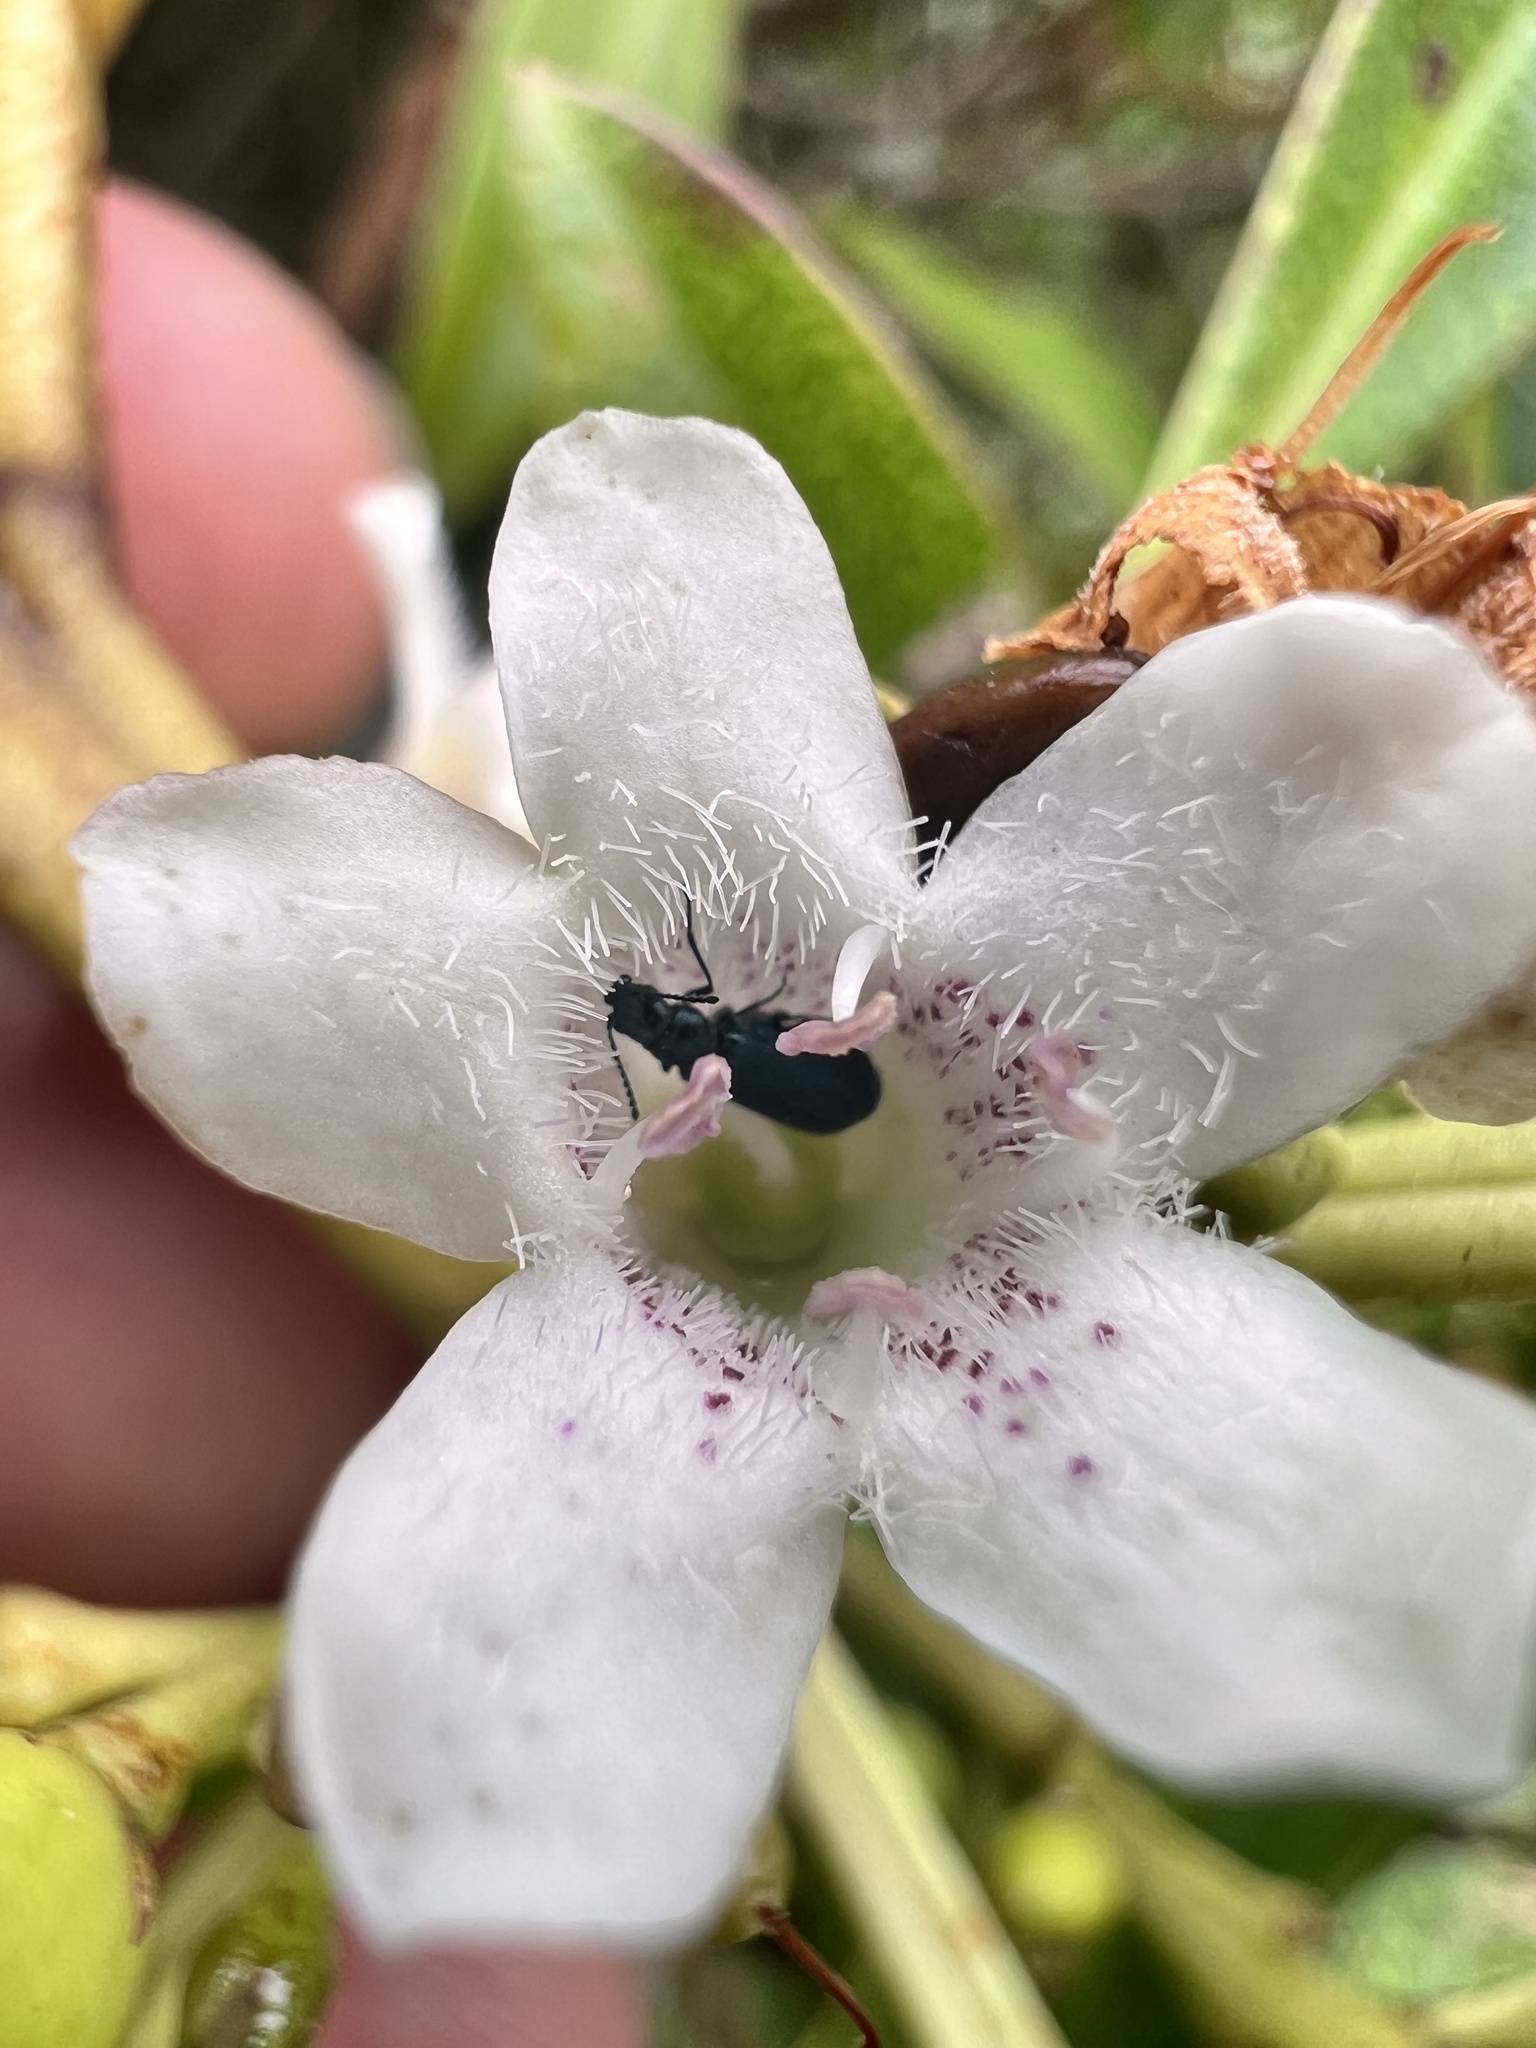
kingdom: Plantae
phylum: Tracheophyta
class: Magnoliopsida
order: Lamiales
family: Scrophulariaceae
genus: Myoporum
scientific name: Myoporum laetum
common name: Ngaio tree
